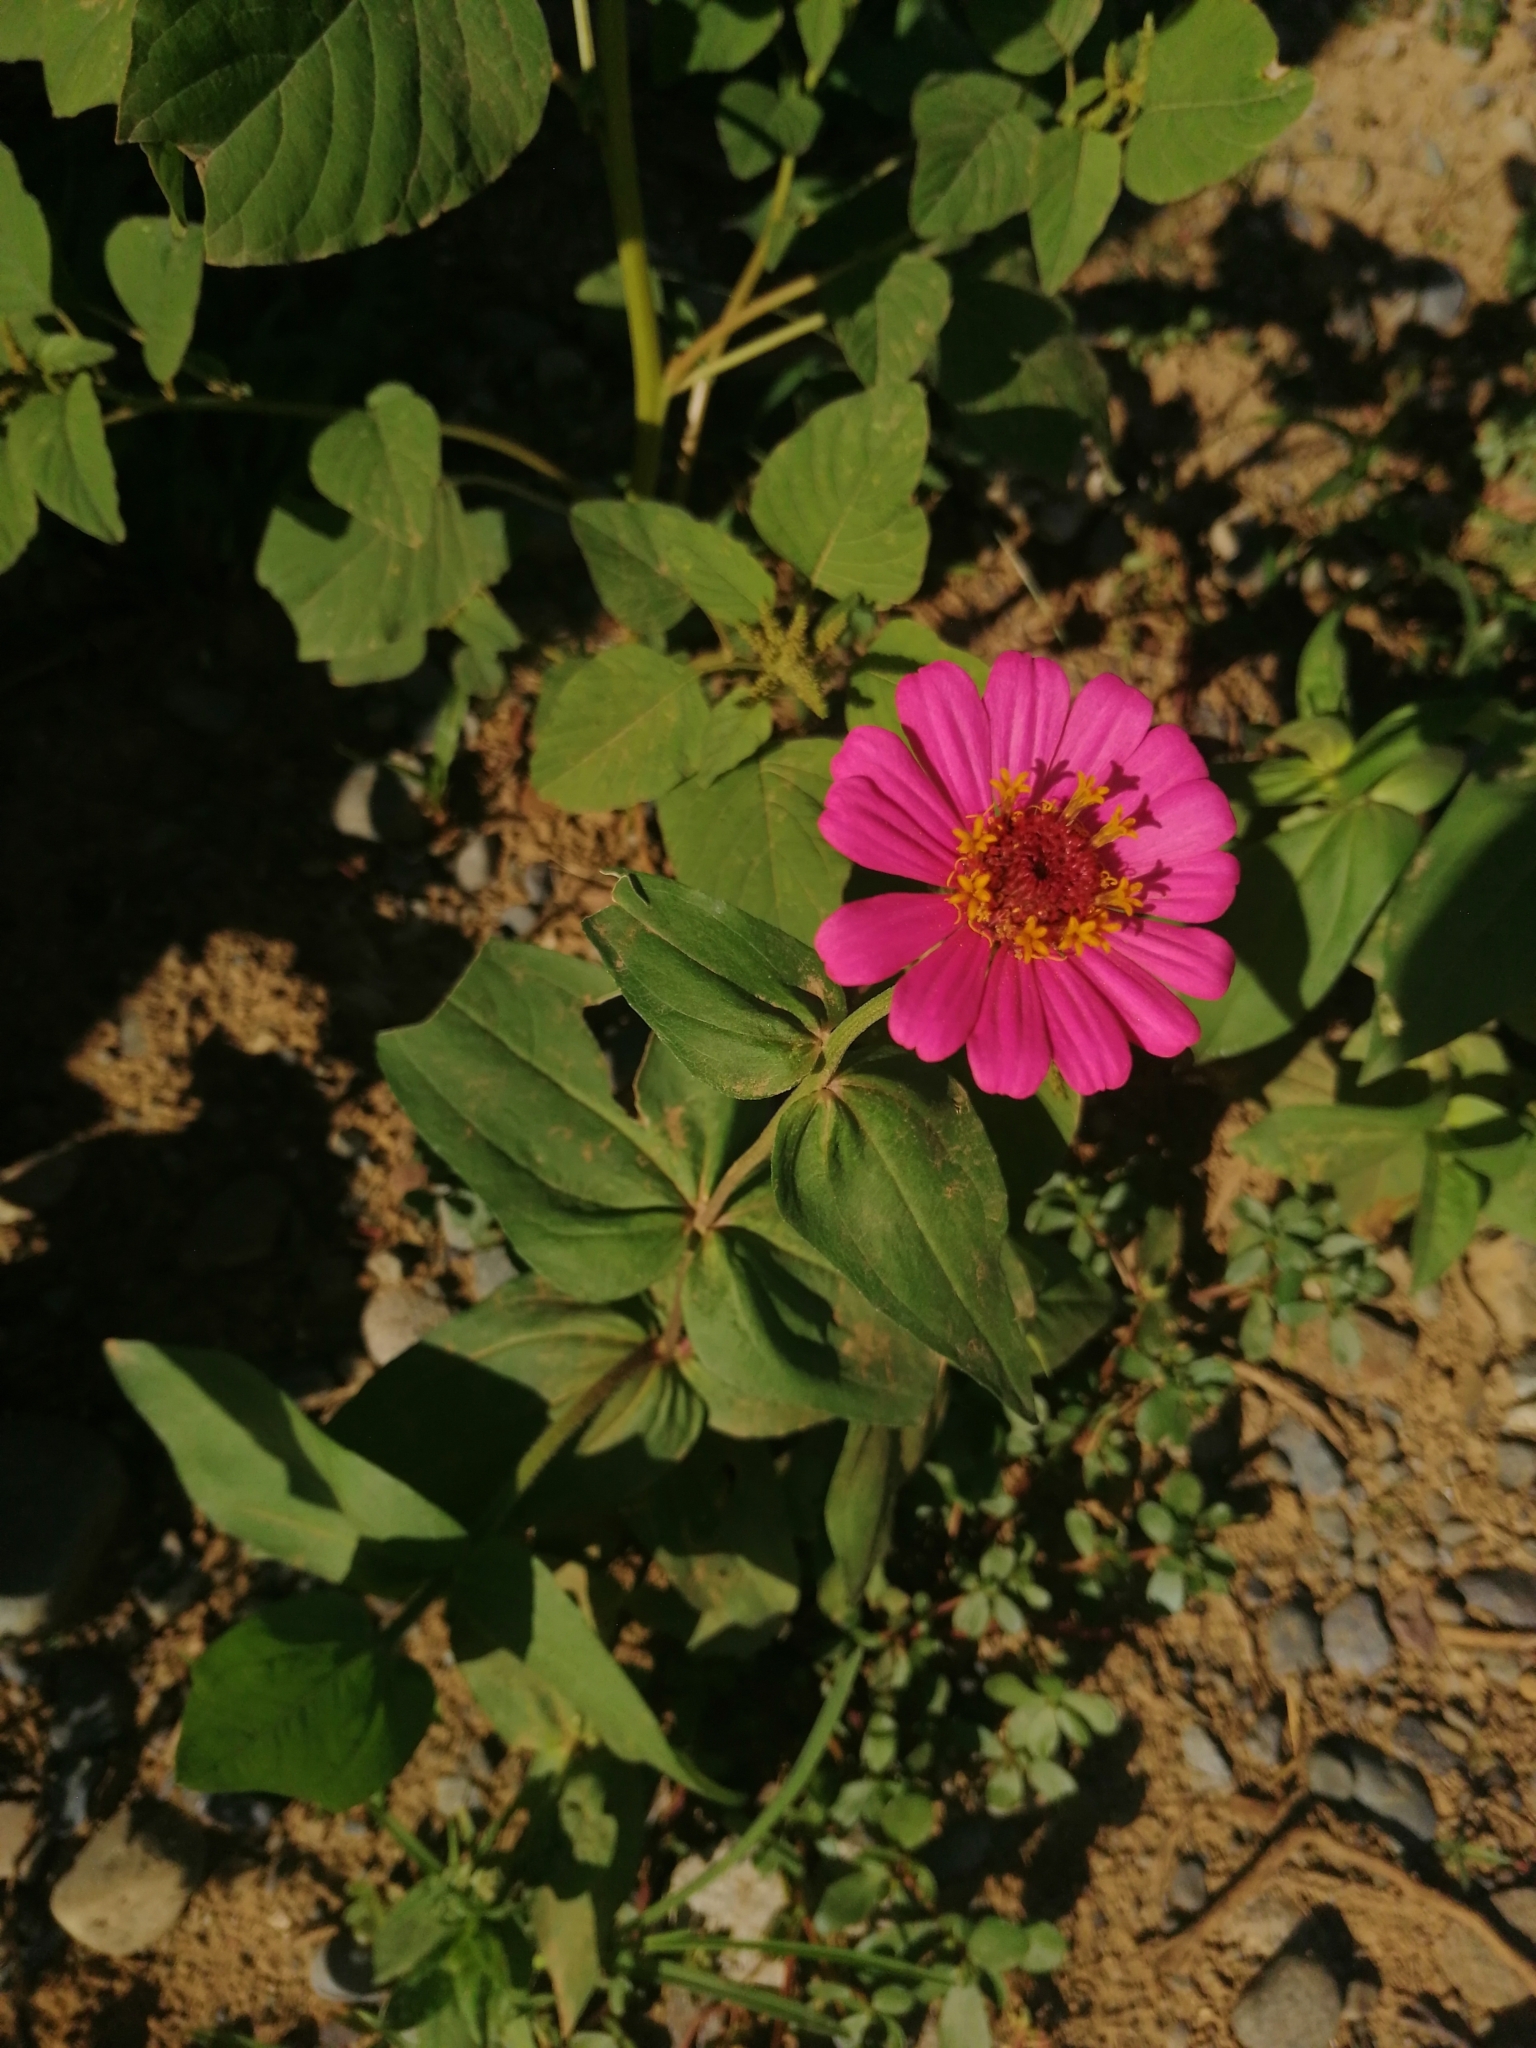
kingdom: Plantae
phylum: Tracheophyta
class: Magnoliopsida
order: Asterales
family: Asteraceae
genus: Zinnia
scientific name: Zinnia elegans
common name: Youth-and-age
